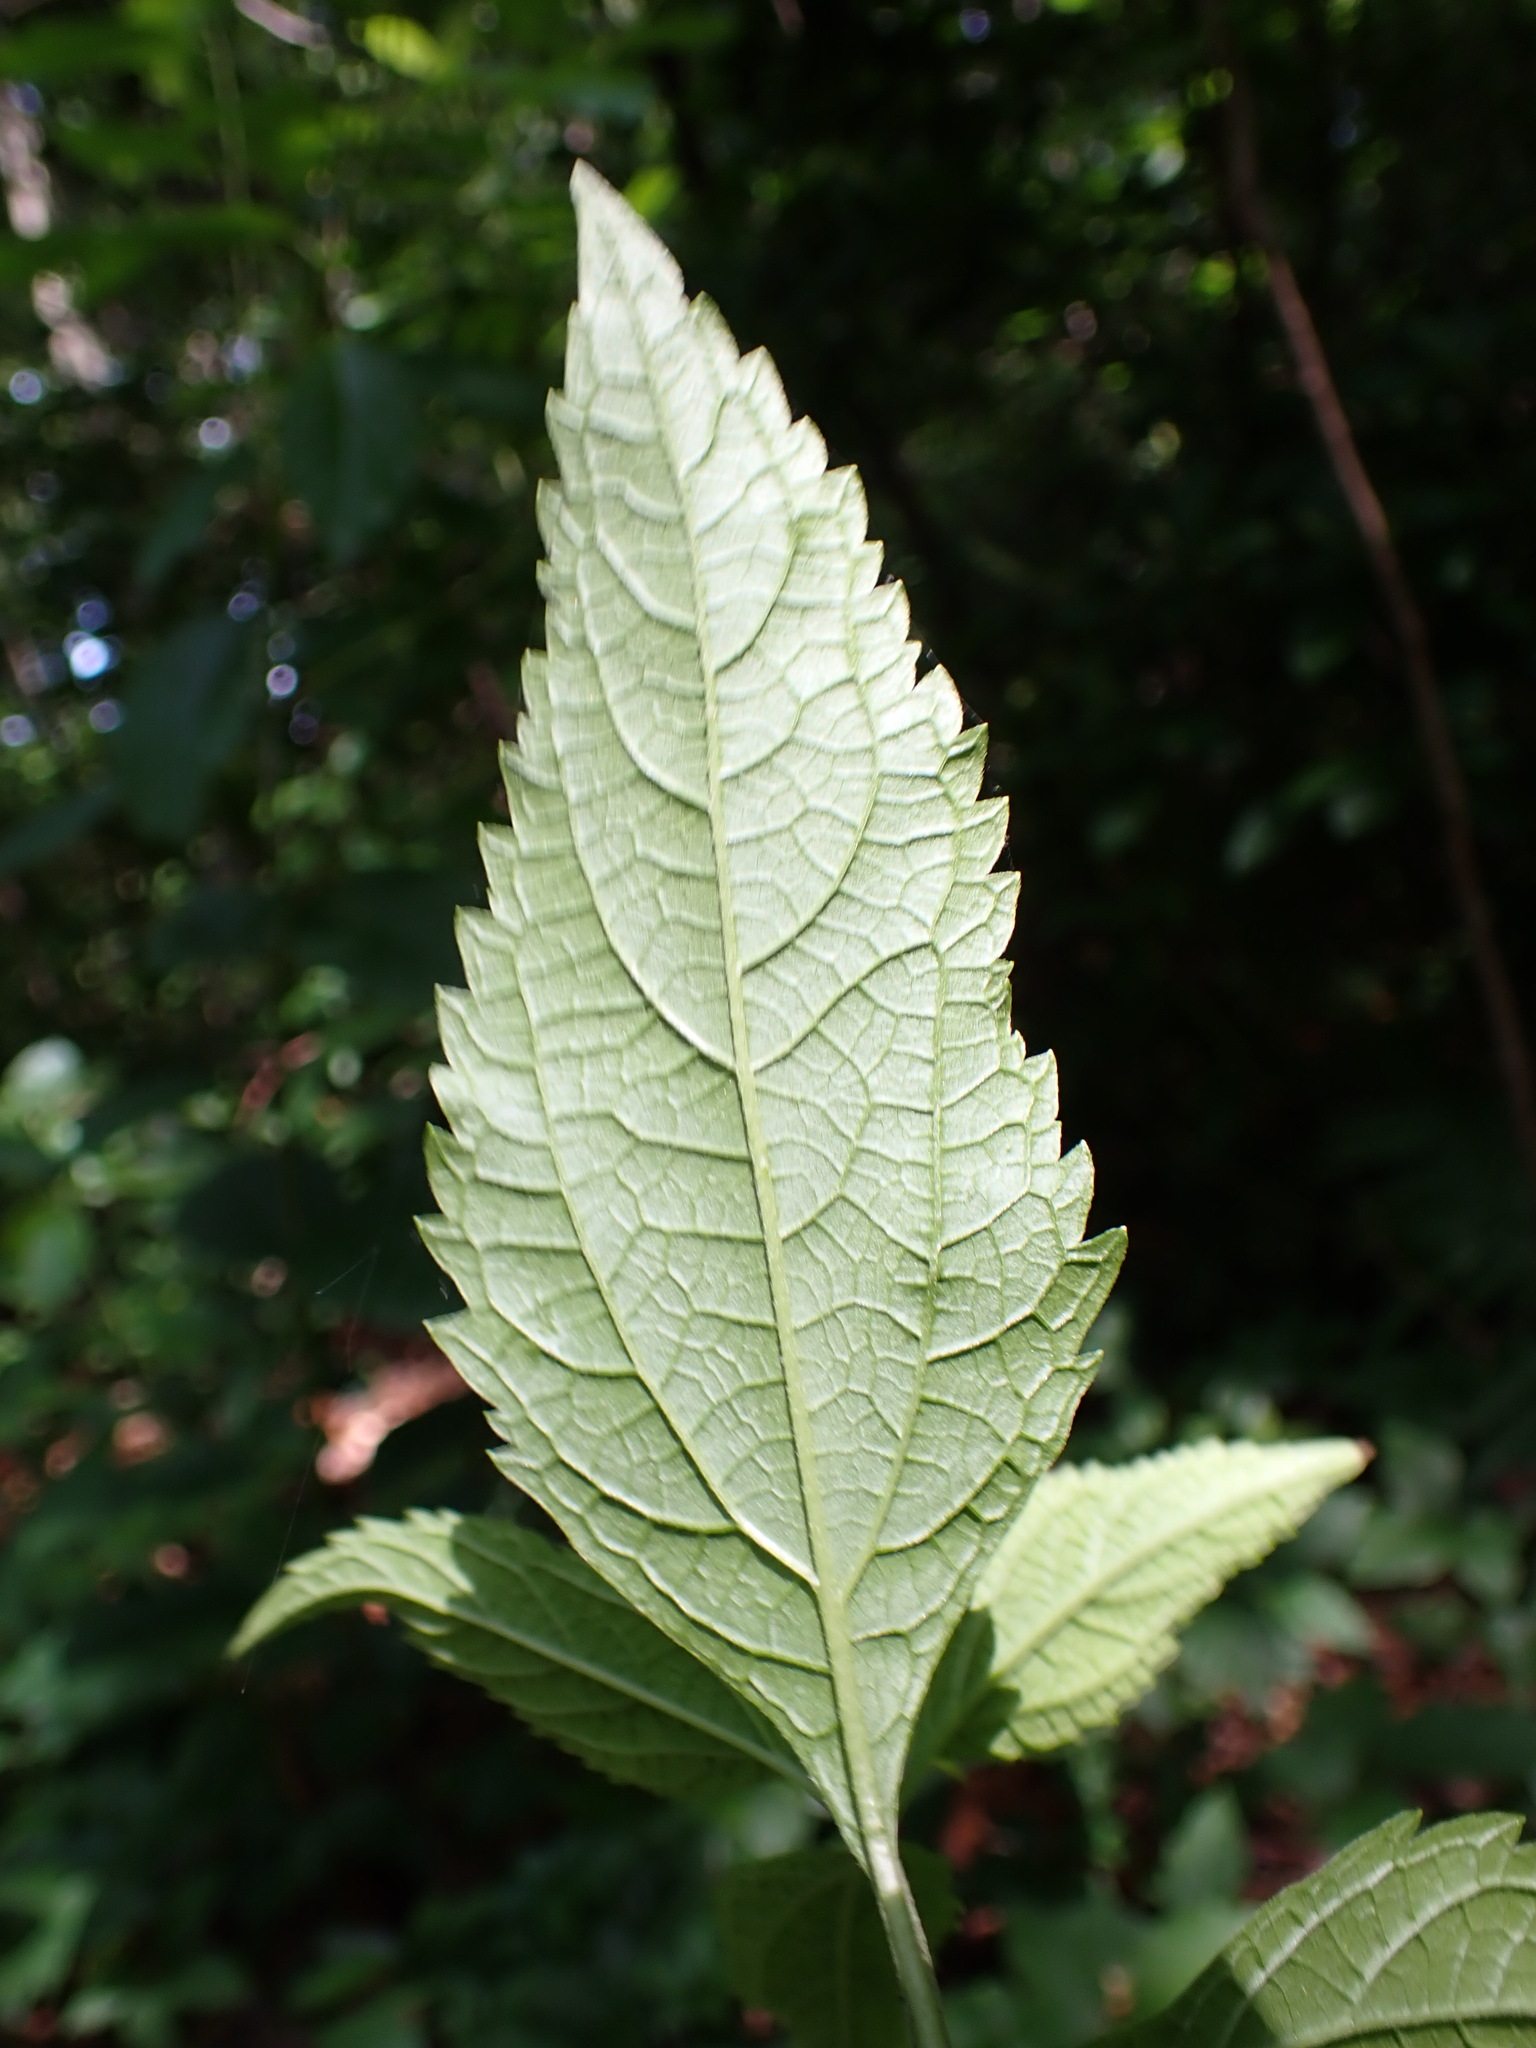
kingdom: Plantae
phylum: Tracheophyta
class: Magnoliopsida
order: Asterales
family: Asteraceae
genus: Eutrochium
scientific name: Eutrochium dubium
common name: Coastal plain joe pye weed
